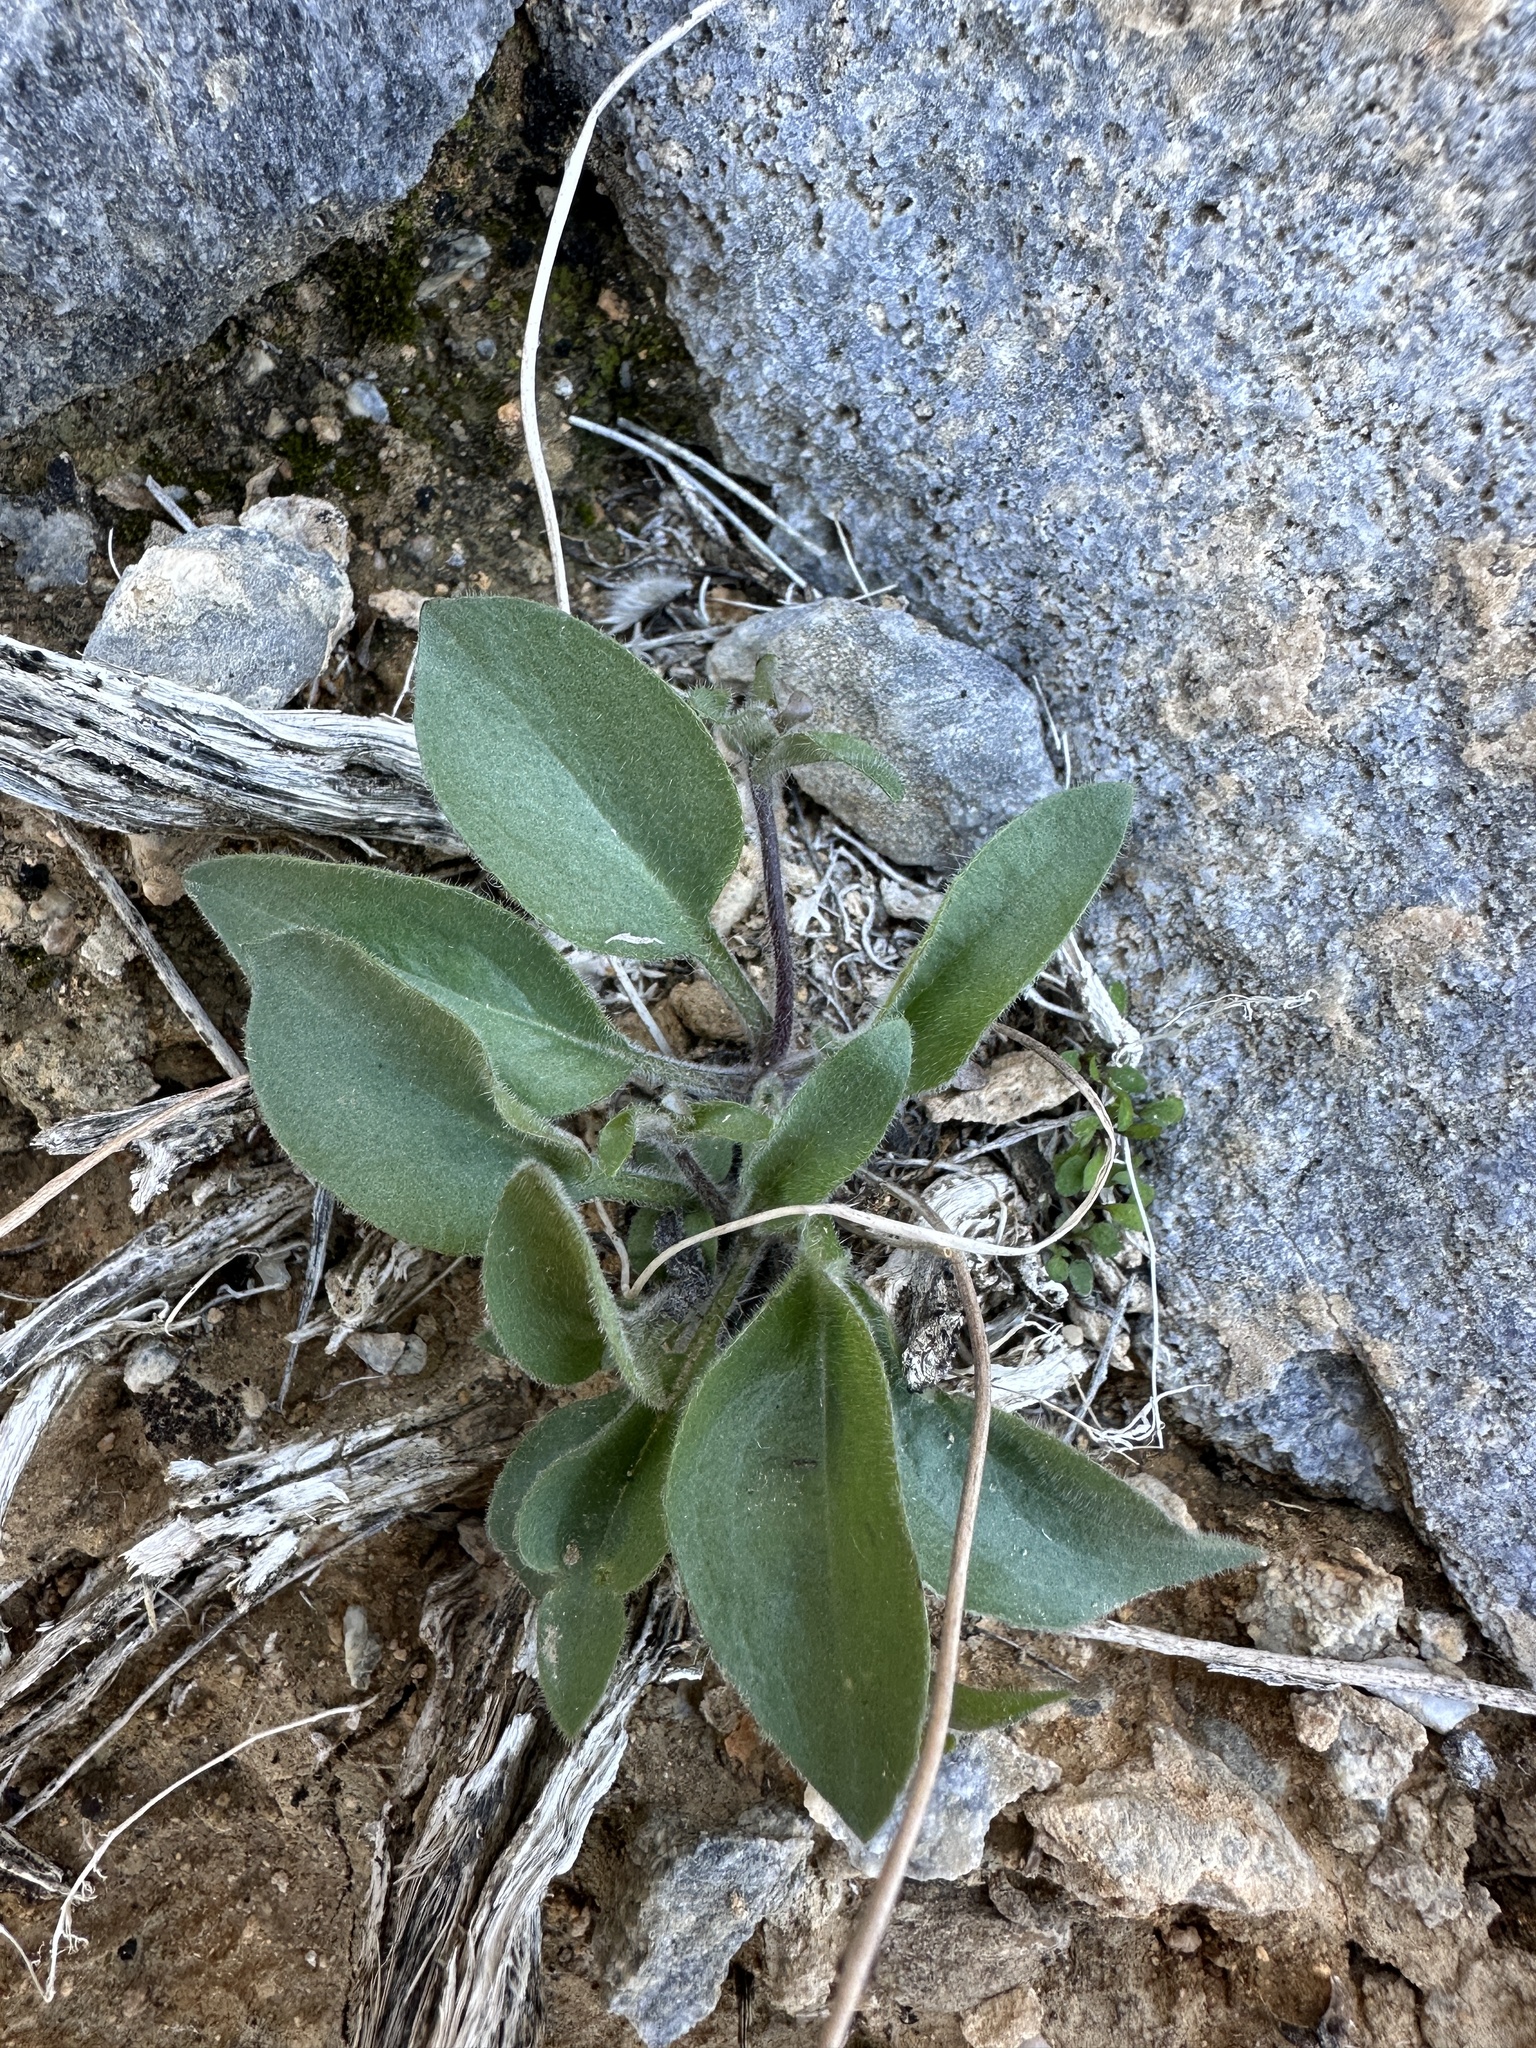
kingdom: Plantae
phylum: Tracheophyta
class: Magnoliopsida
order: Boraginales
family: Hydrophyllaceae
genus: Tricardia
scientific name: Tricardia watsonii
